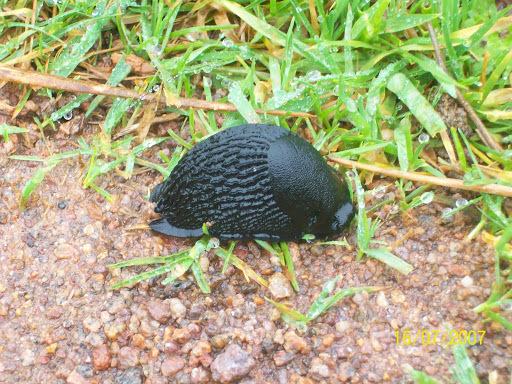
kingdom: Animalia
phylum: Mollusca
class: Gastropoda
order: Stylommatophora
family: Arionidae
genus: Arion
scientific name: Arion ater
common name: Black arion
